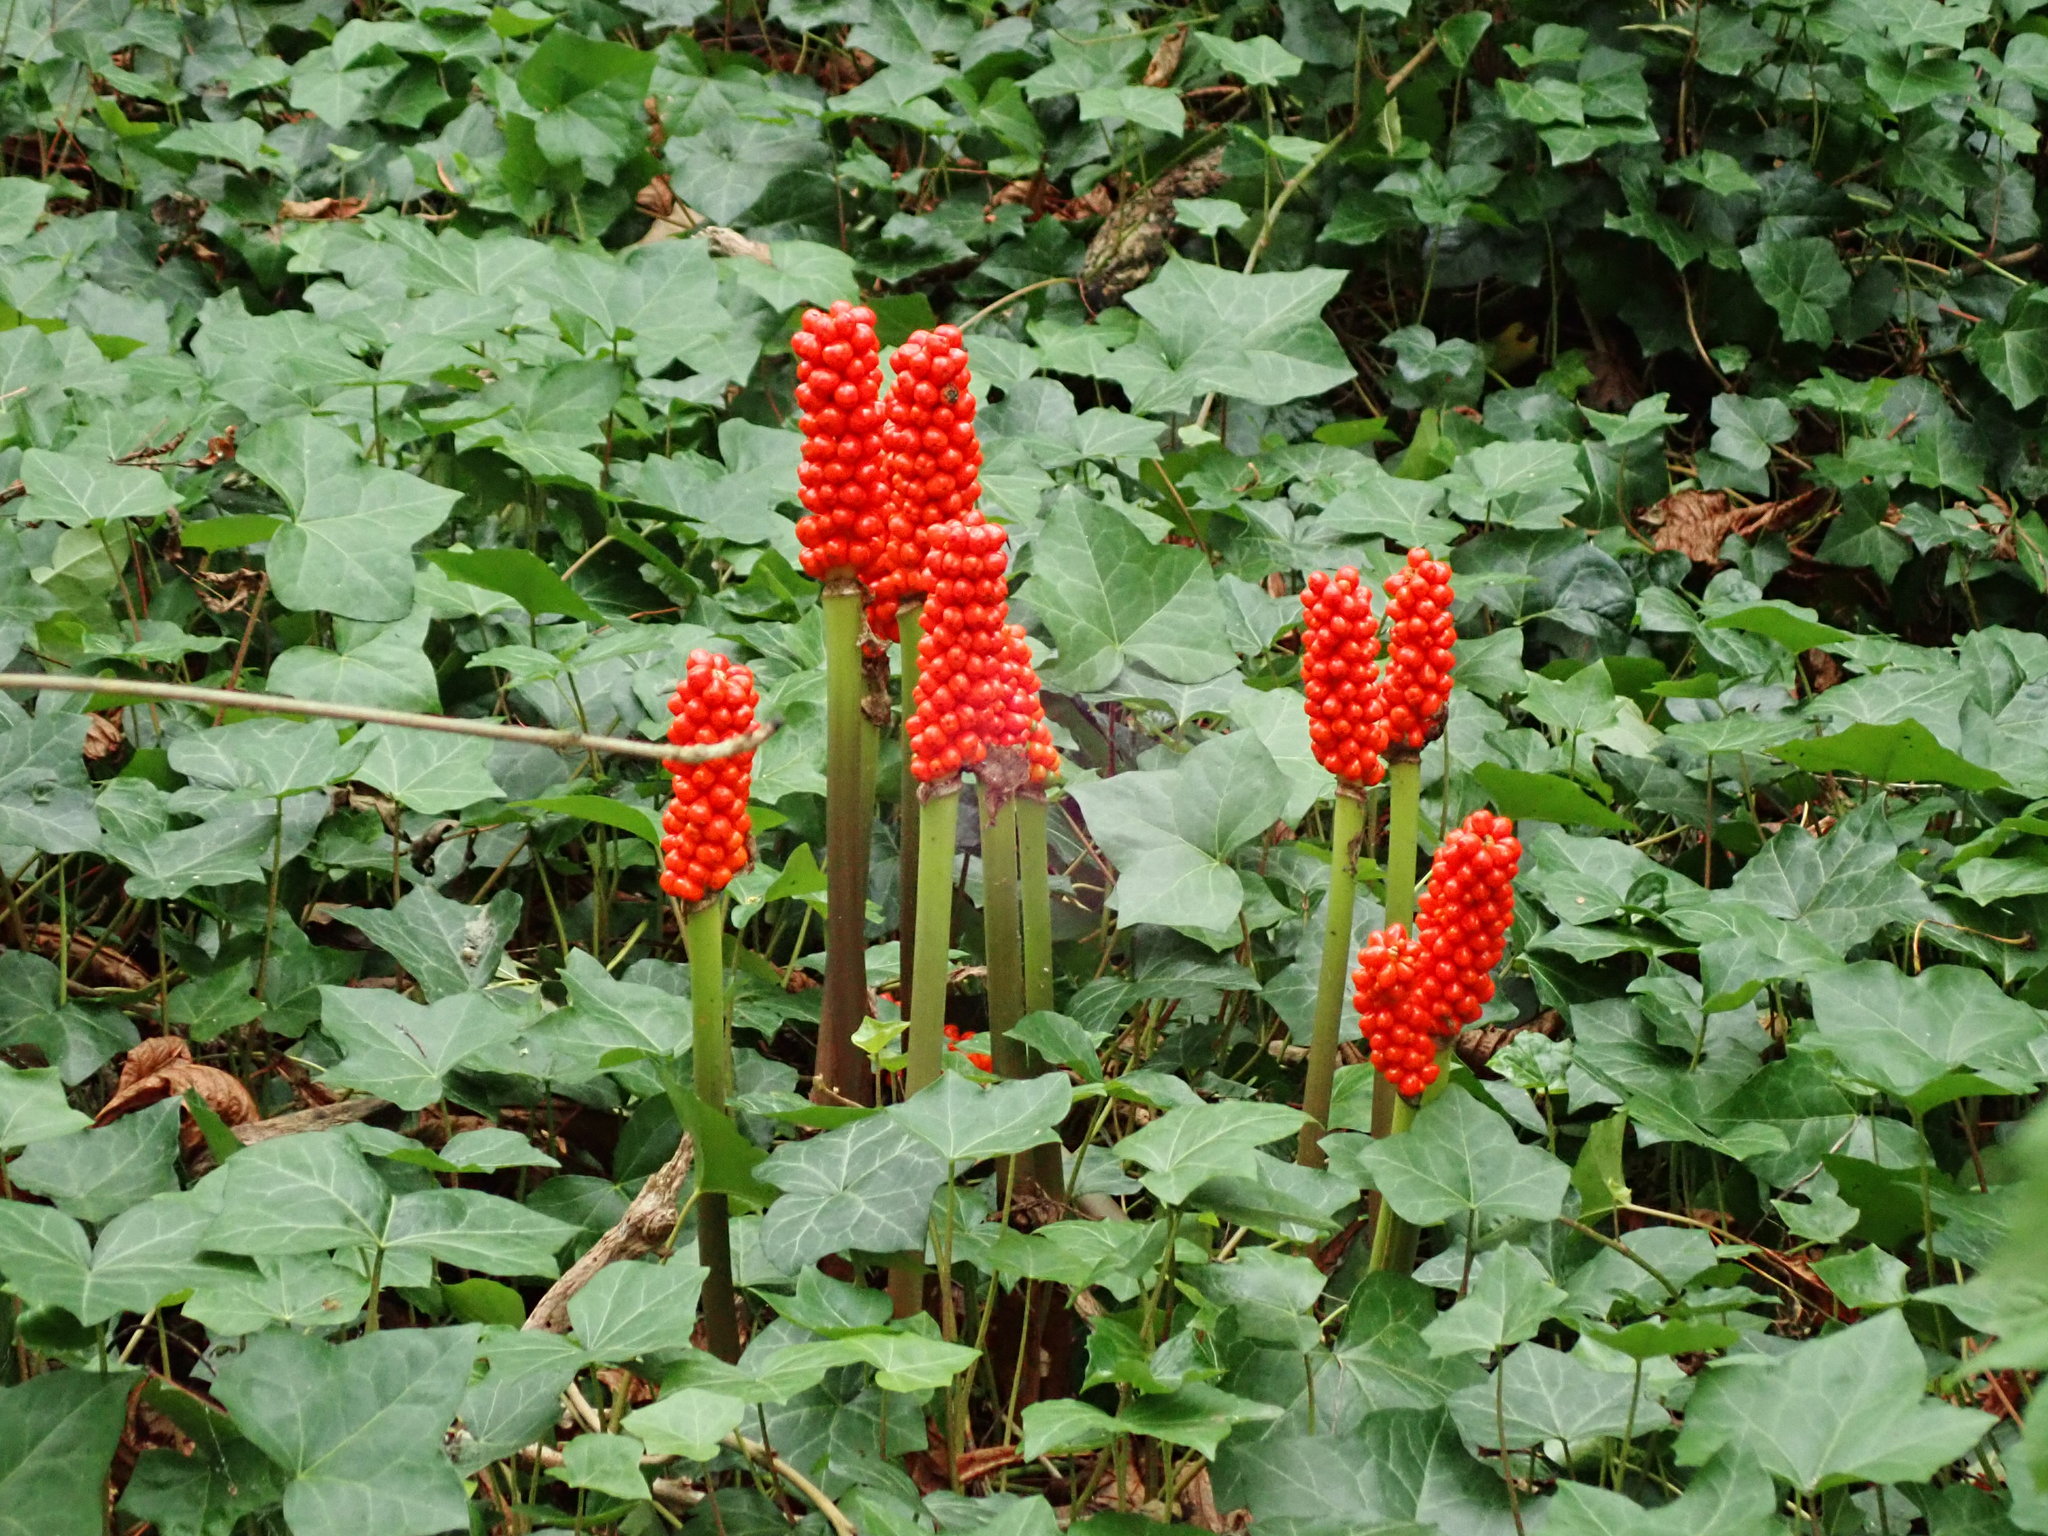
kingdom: Plantae
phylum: Tracheophyta
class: Liliopsida
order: Alismatales
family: Araceae
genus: Arum
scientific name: Arum maculatum
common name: Lords-and-ladies
